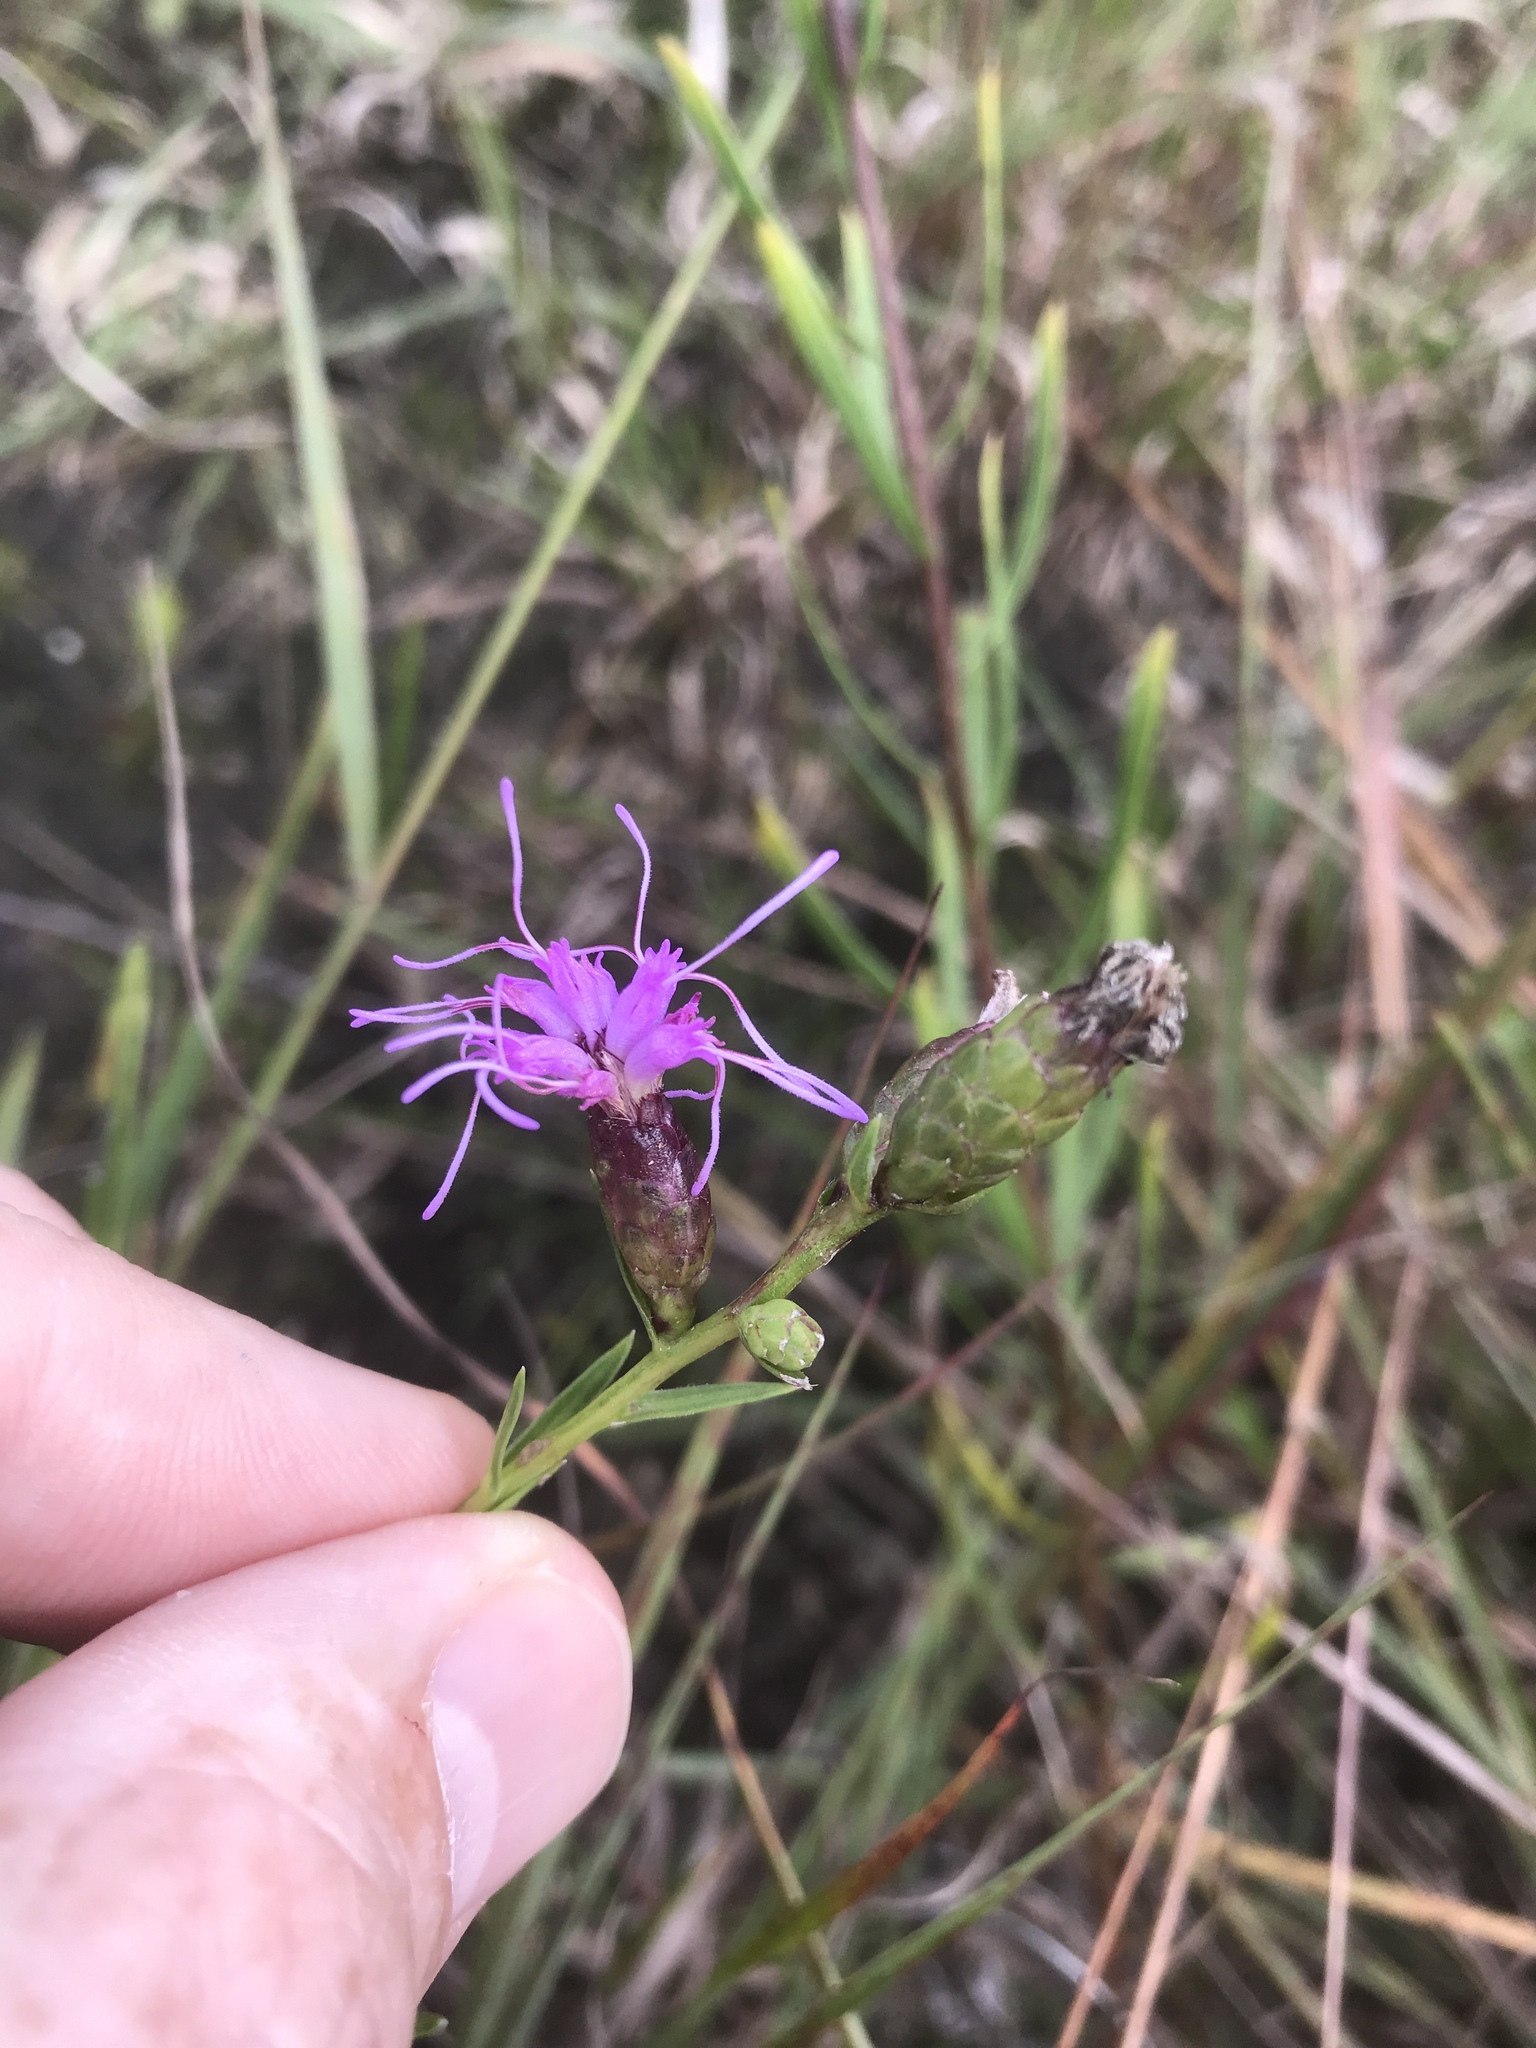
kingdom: Plantae
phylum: Tracheophyta
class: Magnoliopsida
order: Asterales
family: Asteraceae
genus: Liatris
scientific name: Liatris cylindracea
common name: Few-head blazingstar
